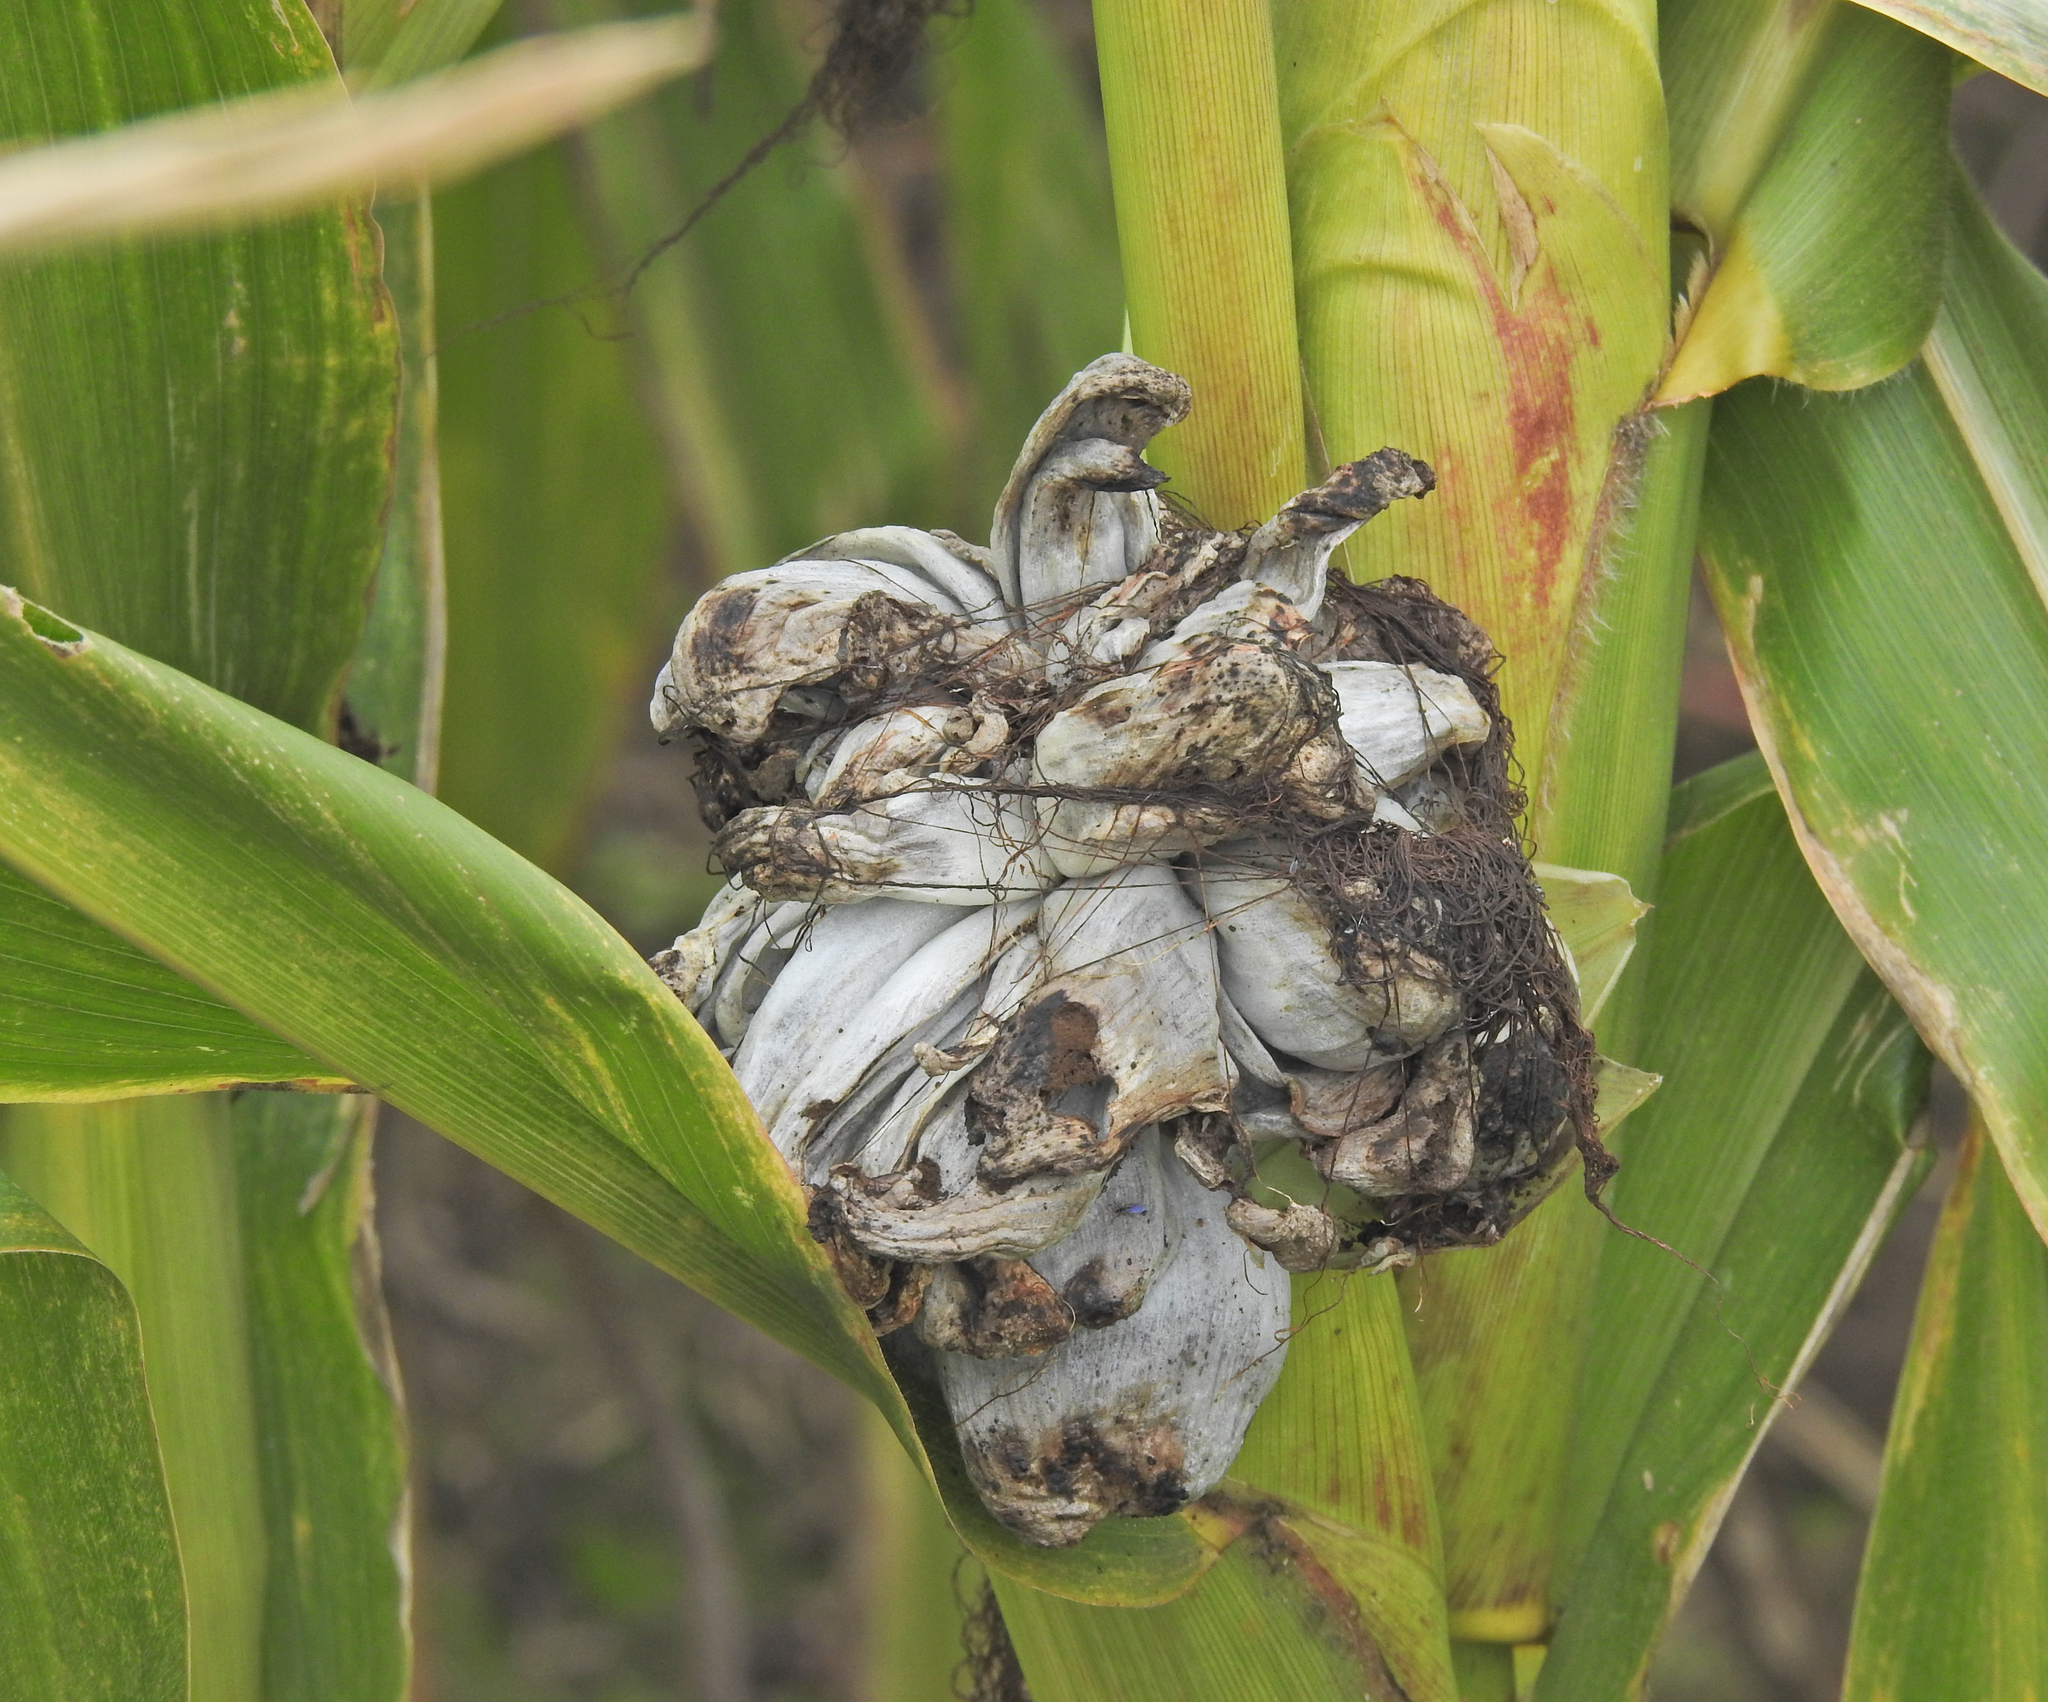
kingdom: Fungi
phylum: Basidiomycota
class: Ustilaginomycetes
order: Ustilaginales
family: Ustilaginaceae
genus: Mycosarcoma
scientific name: Mycosarcoma maydis
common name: Corn smut
